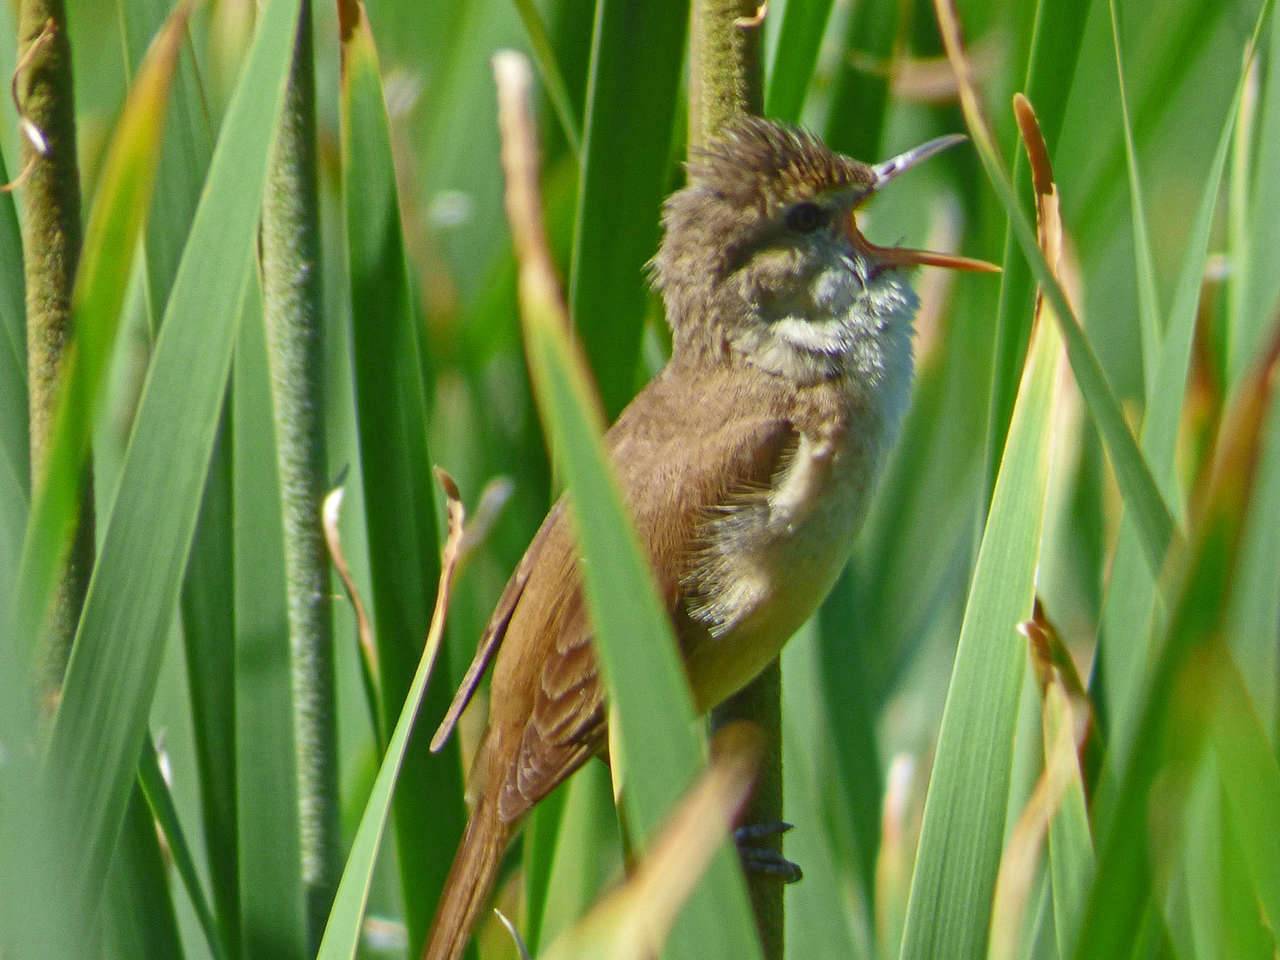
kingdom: Animalia
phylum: Chordata
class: Aves
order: Passeriformes
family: Acrocephalidae
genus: Acrocephalus
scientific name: Acrocephalus australis
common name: Australian reed warbler
